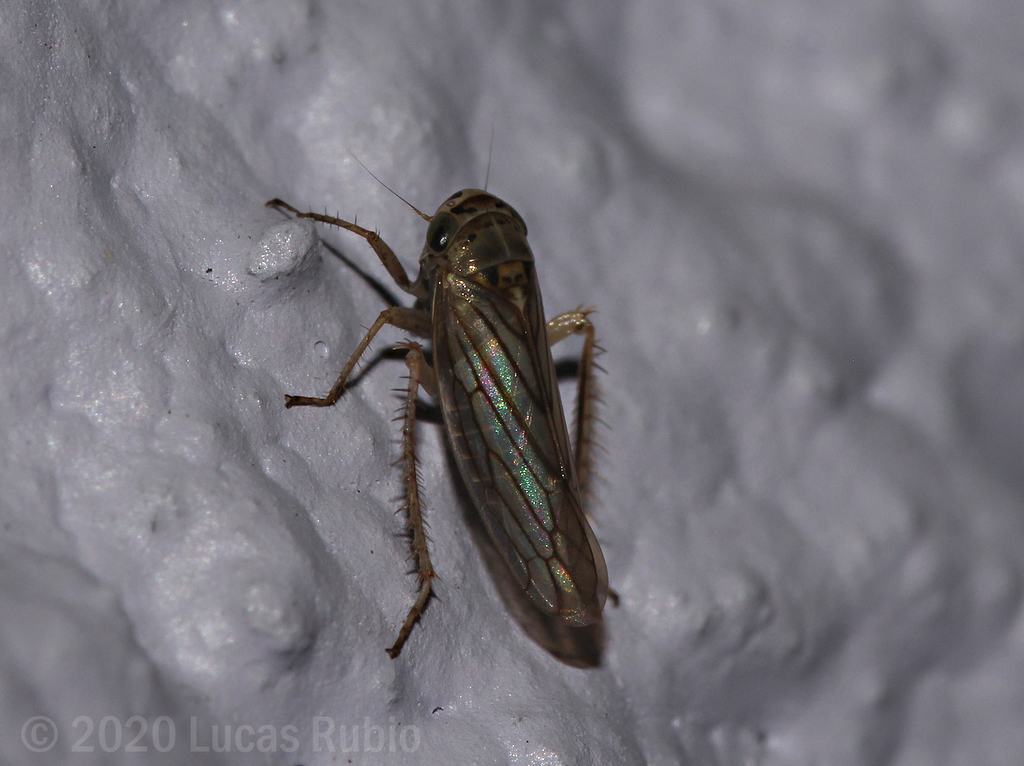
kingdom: Animalia
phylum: Arthropoda
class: Insecta
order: Hemiptera
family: Cicadellidae
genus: Exitianus
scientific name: Exitianus obscurinervis
